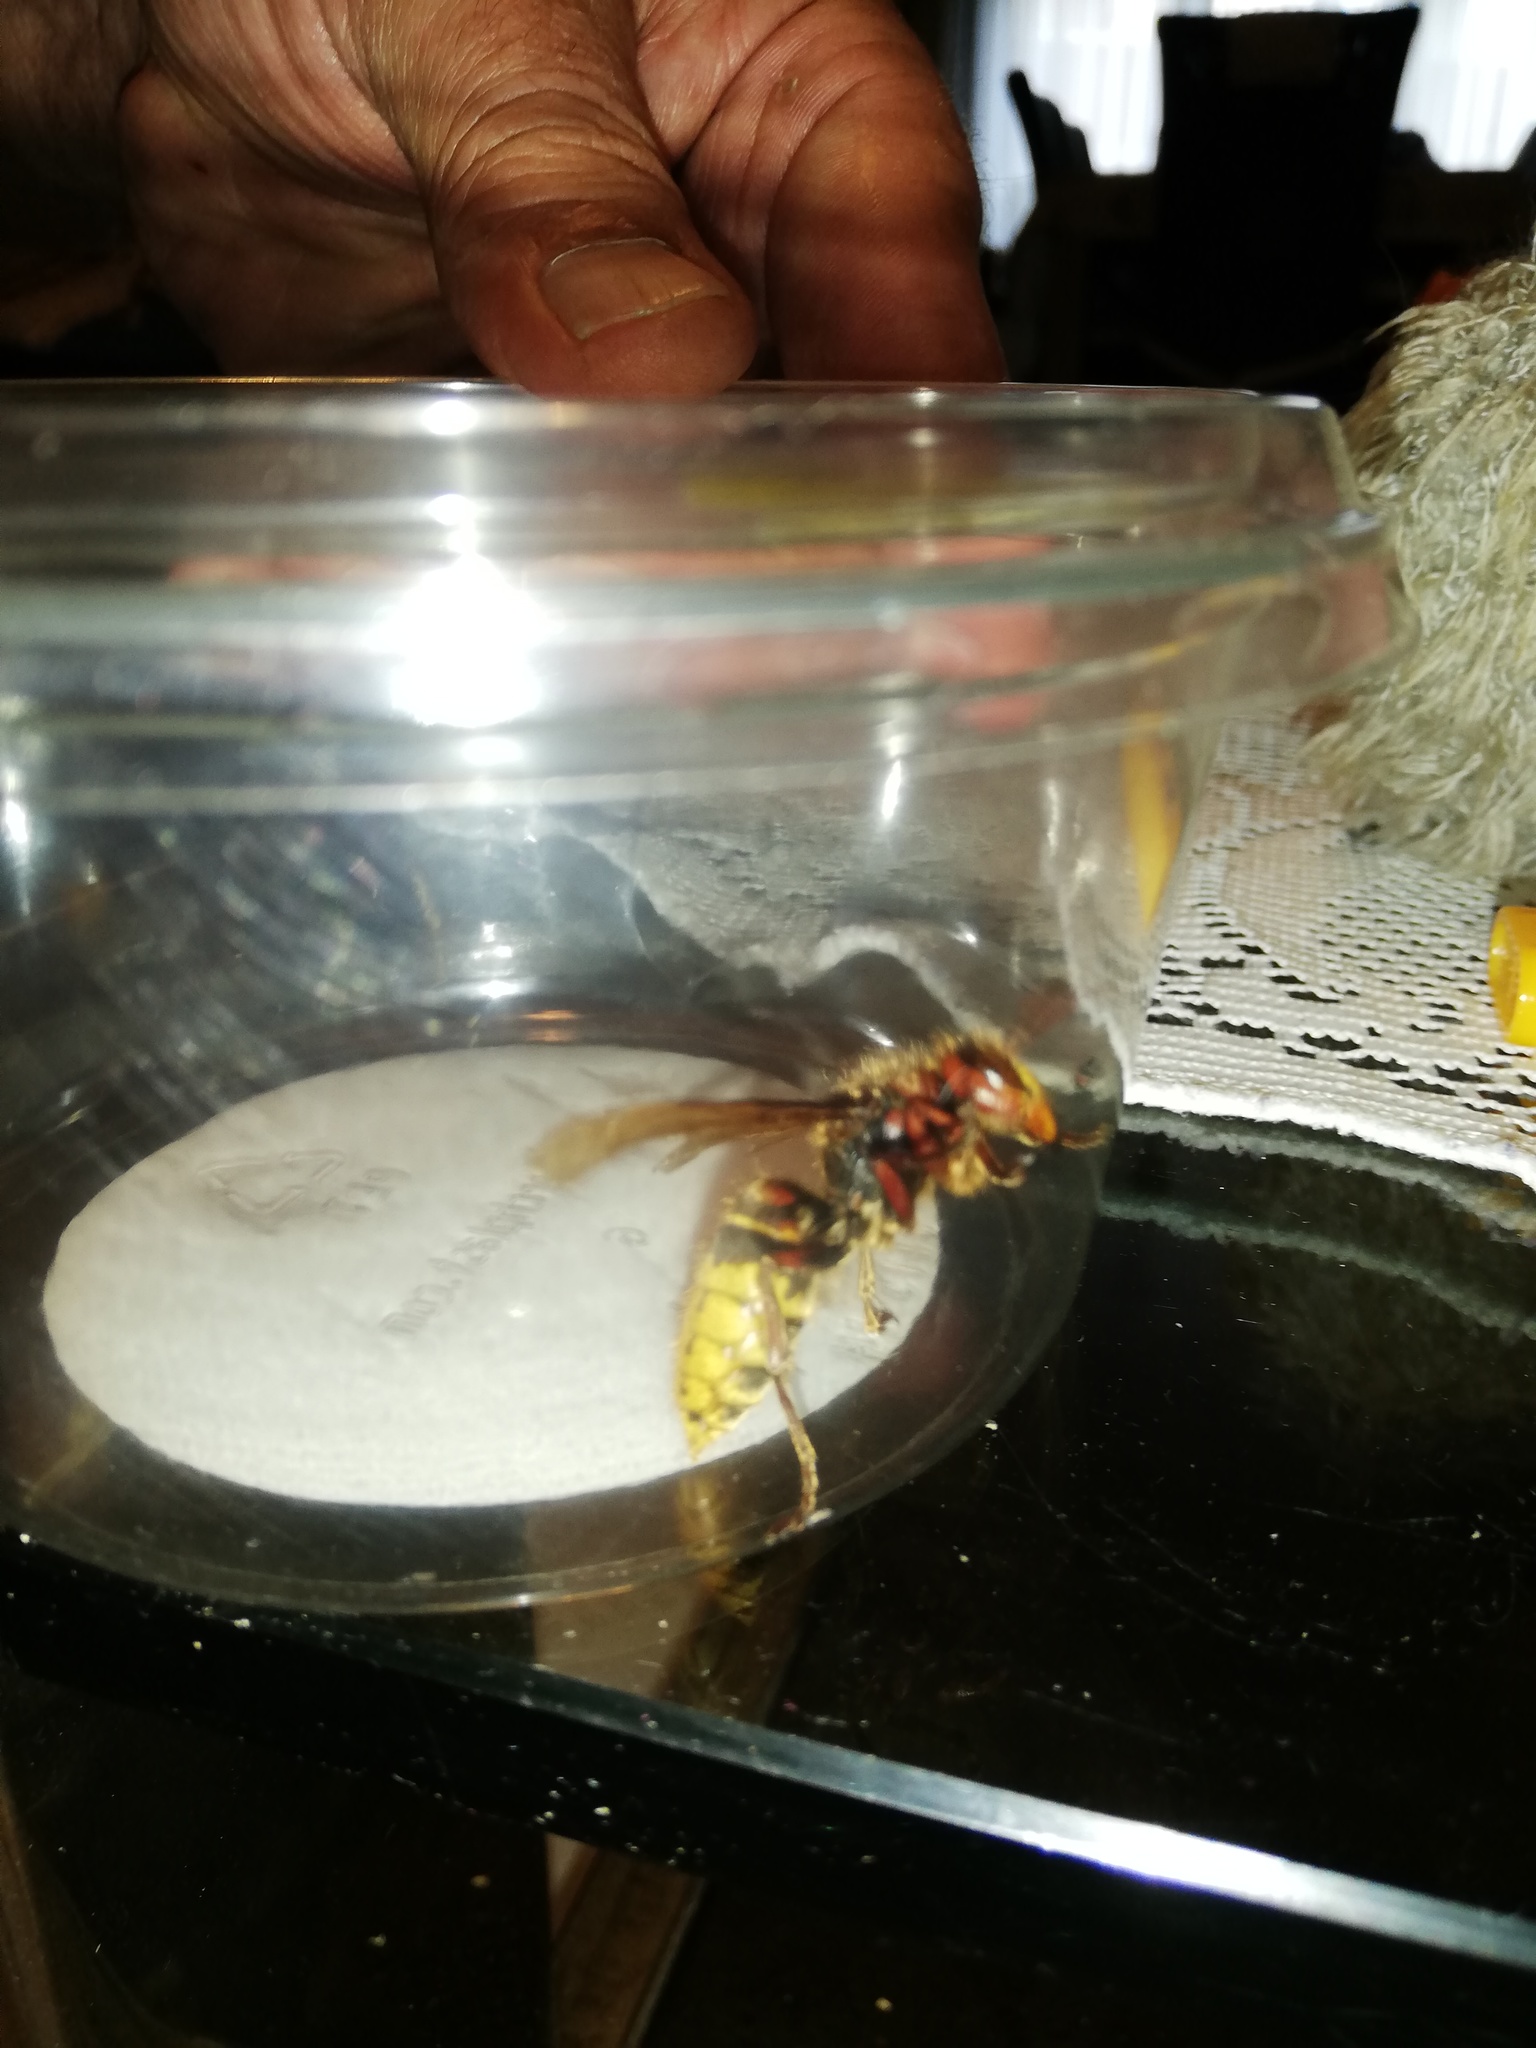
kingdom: Animalia
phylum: Arthropoda
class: Insecta
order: Hymenoptera
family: Vespidae
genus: Vespa
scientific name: Vespa crabro
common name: Hornet
